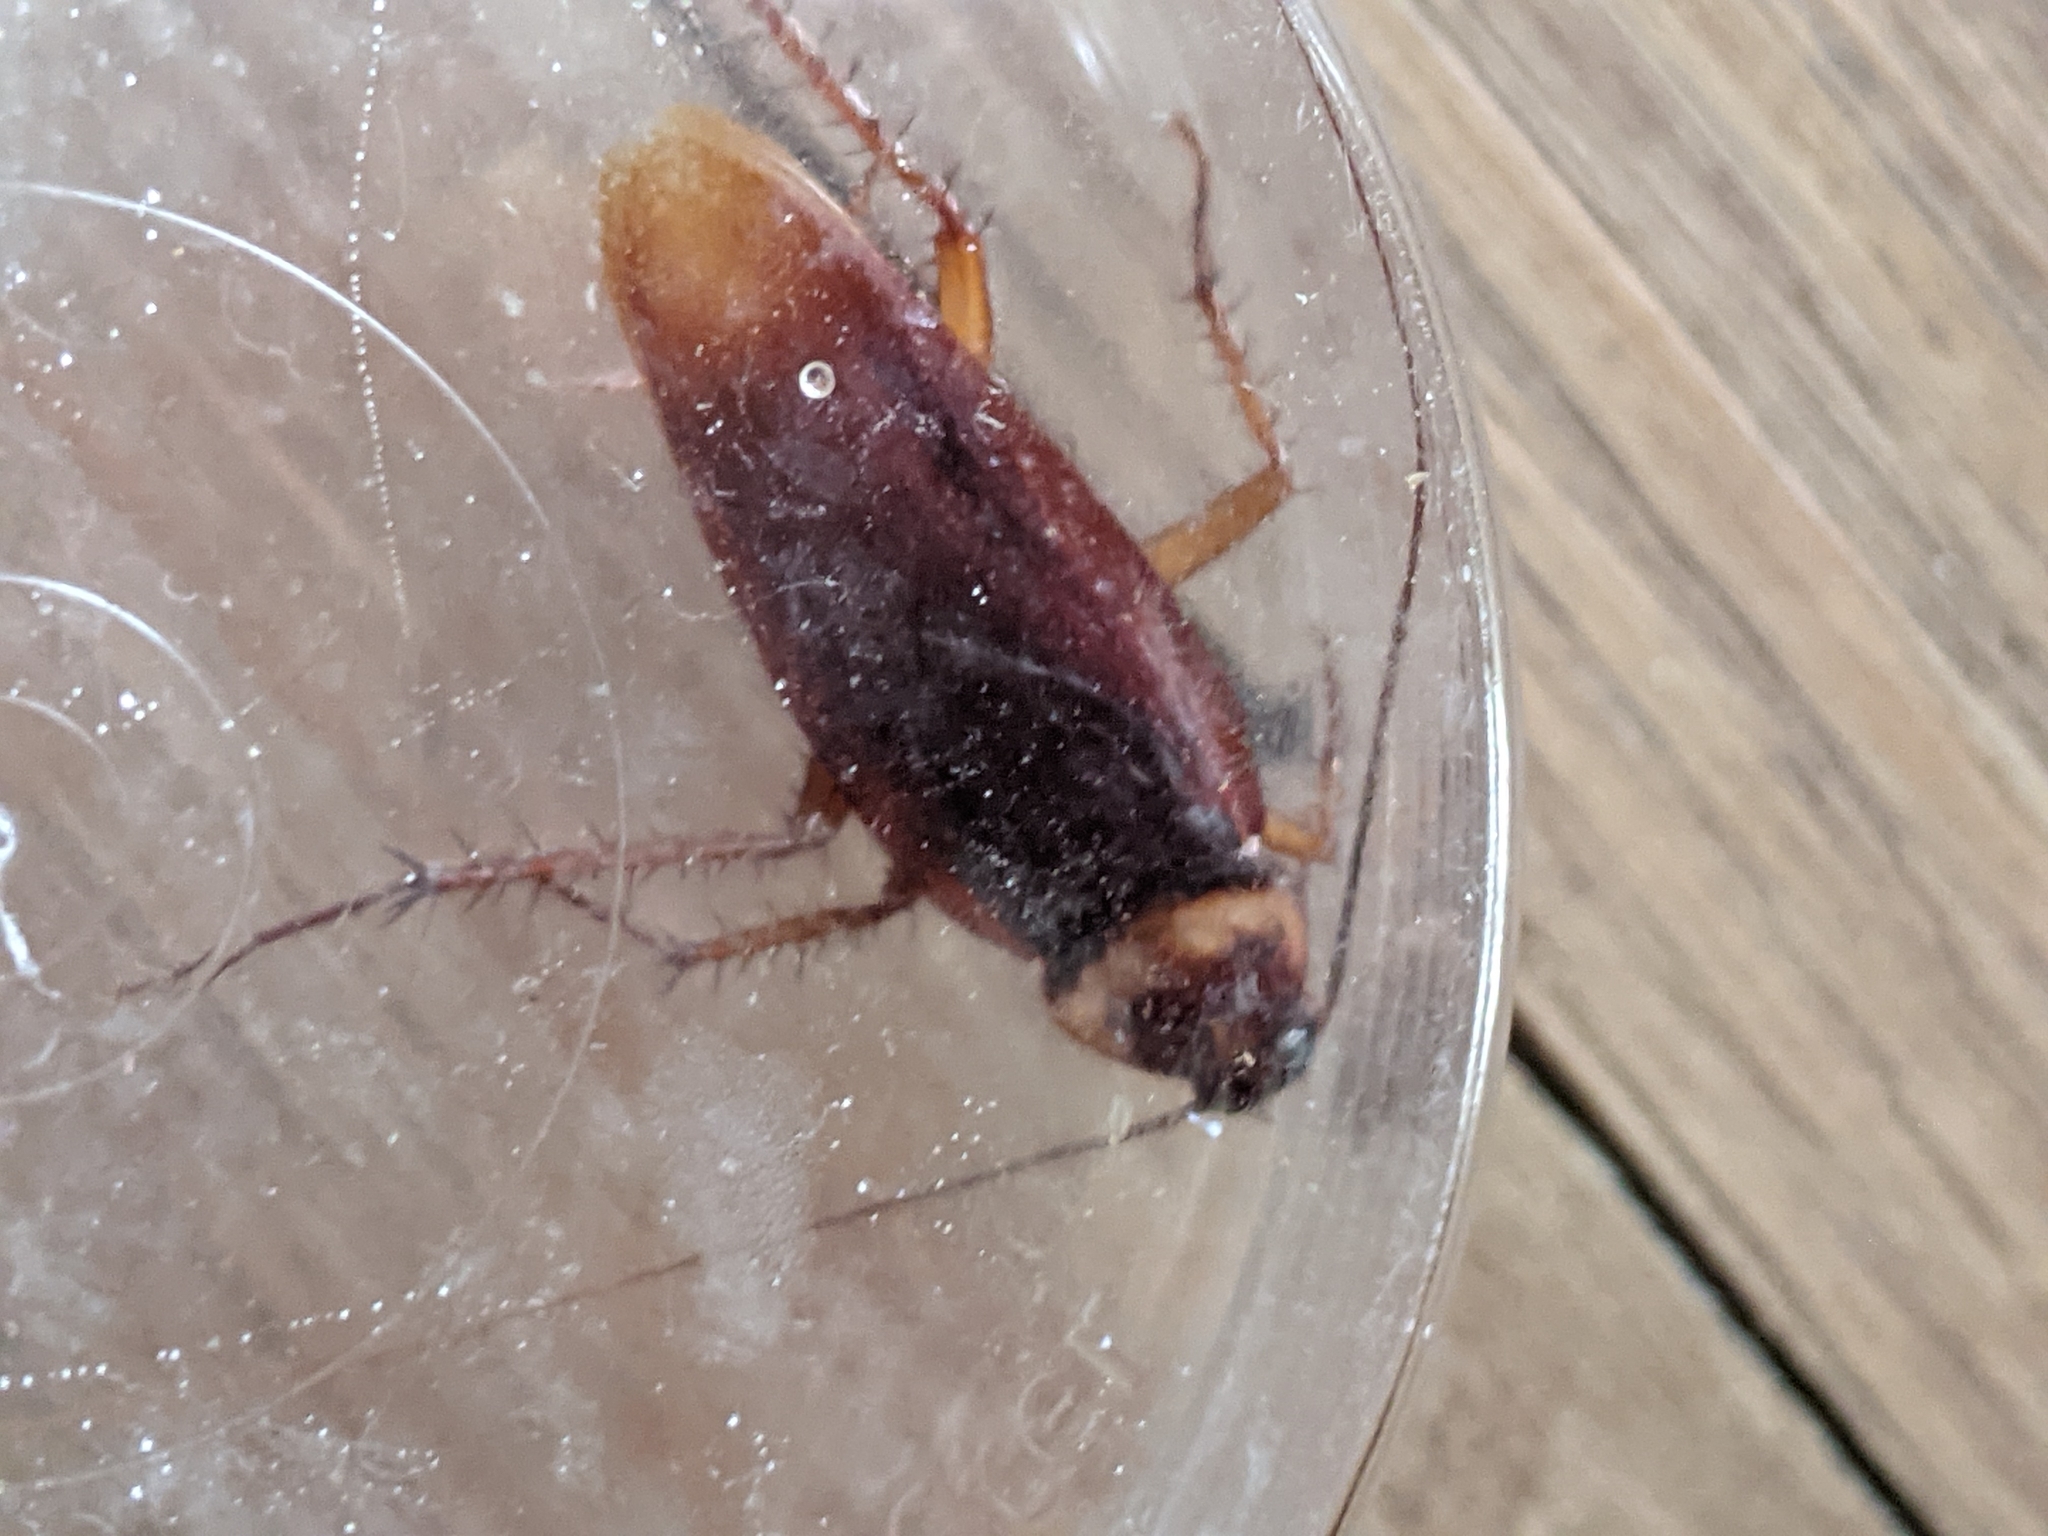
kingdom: Animalia
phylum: Arthropoda
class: Insecta
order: Blattodea
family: Blattidae
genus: Periplaneta
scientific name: Periplaneta americana
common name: American cockroach
